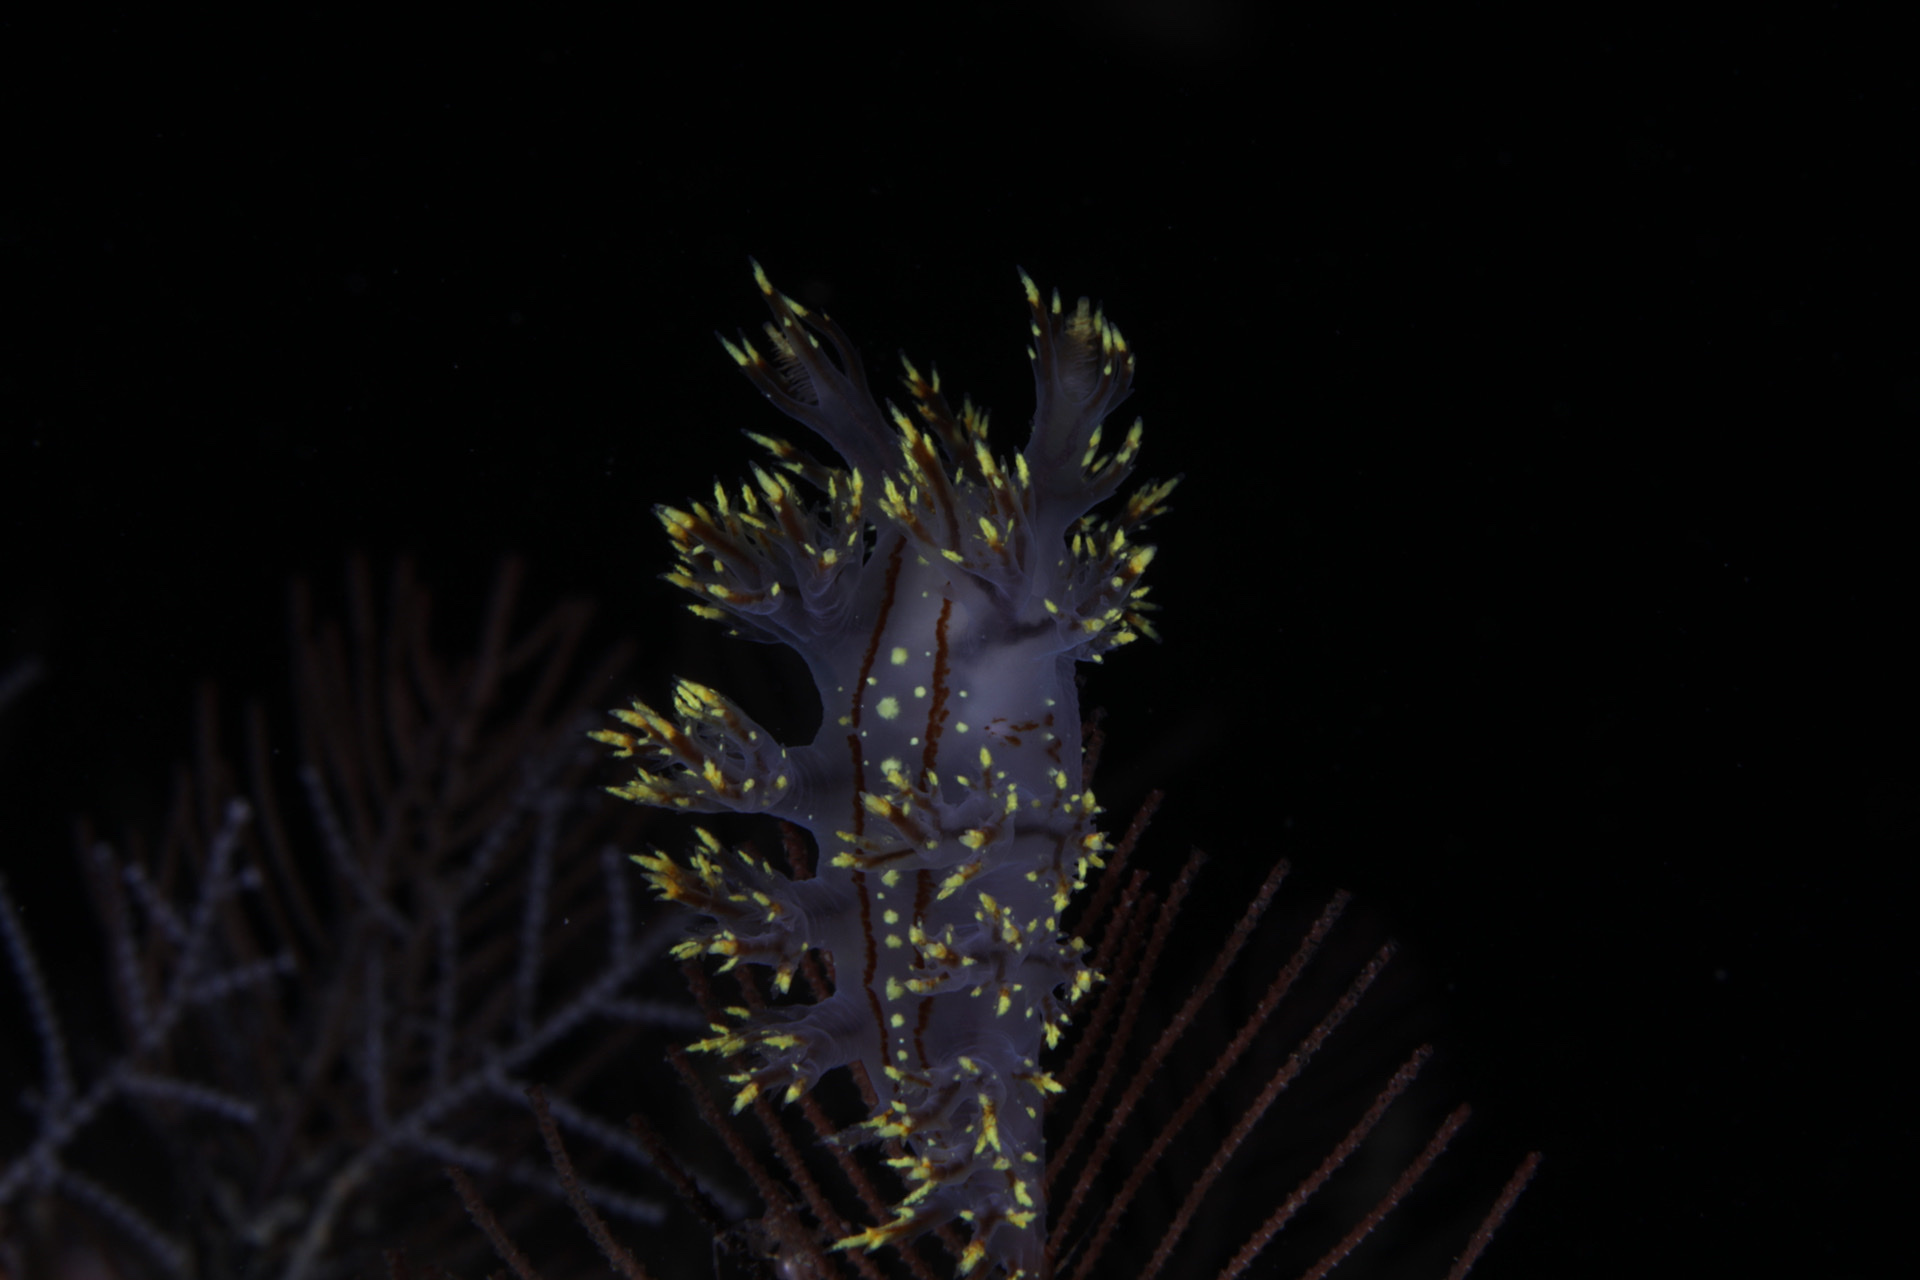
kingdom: Animalia
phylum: Mollusca
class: Gastropoda
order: Nudibranchia
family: Dendronotidae
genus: Dendronotus
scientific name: Dendronotus yrjargul
